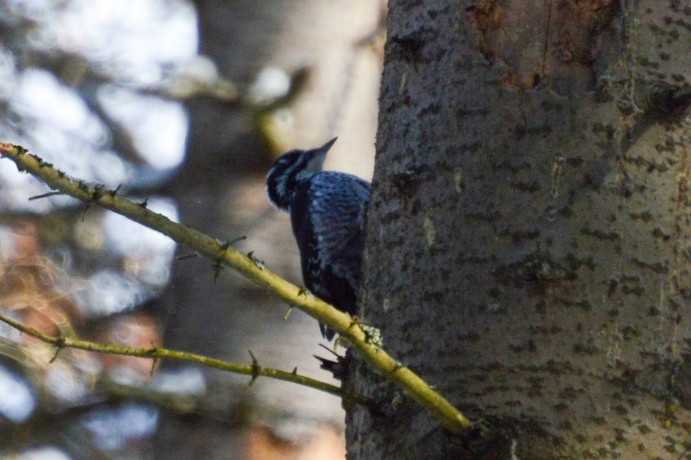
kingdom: Animalia
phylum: Chordata
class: Aves
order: Piciformes
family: Picidae
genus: Picoides
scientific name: Picoides tridactylus
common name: Eurasian three-toed woodpecker
